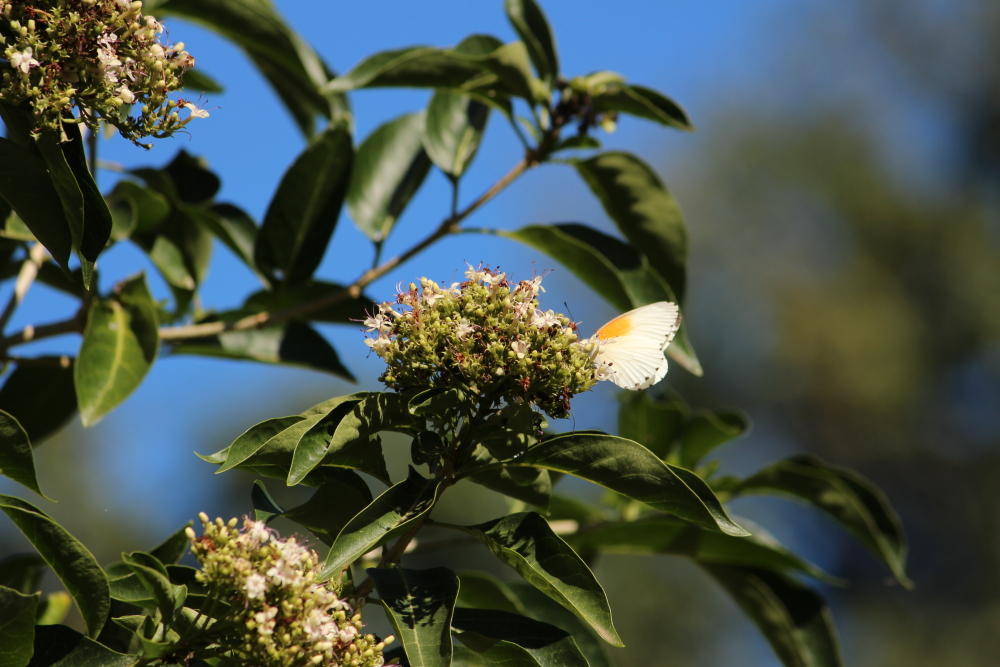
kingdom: Plantae
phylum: Tracheophyta
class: Magnoliopsida
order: Lamiales
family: Lamiaceae
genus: Volkameria
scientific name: Volkameria glabra
